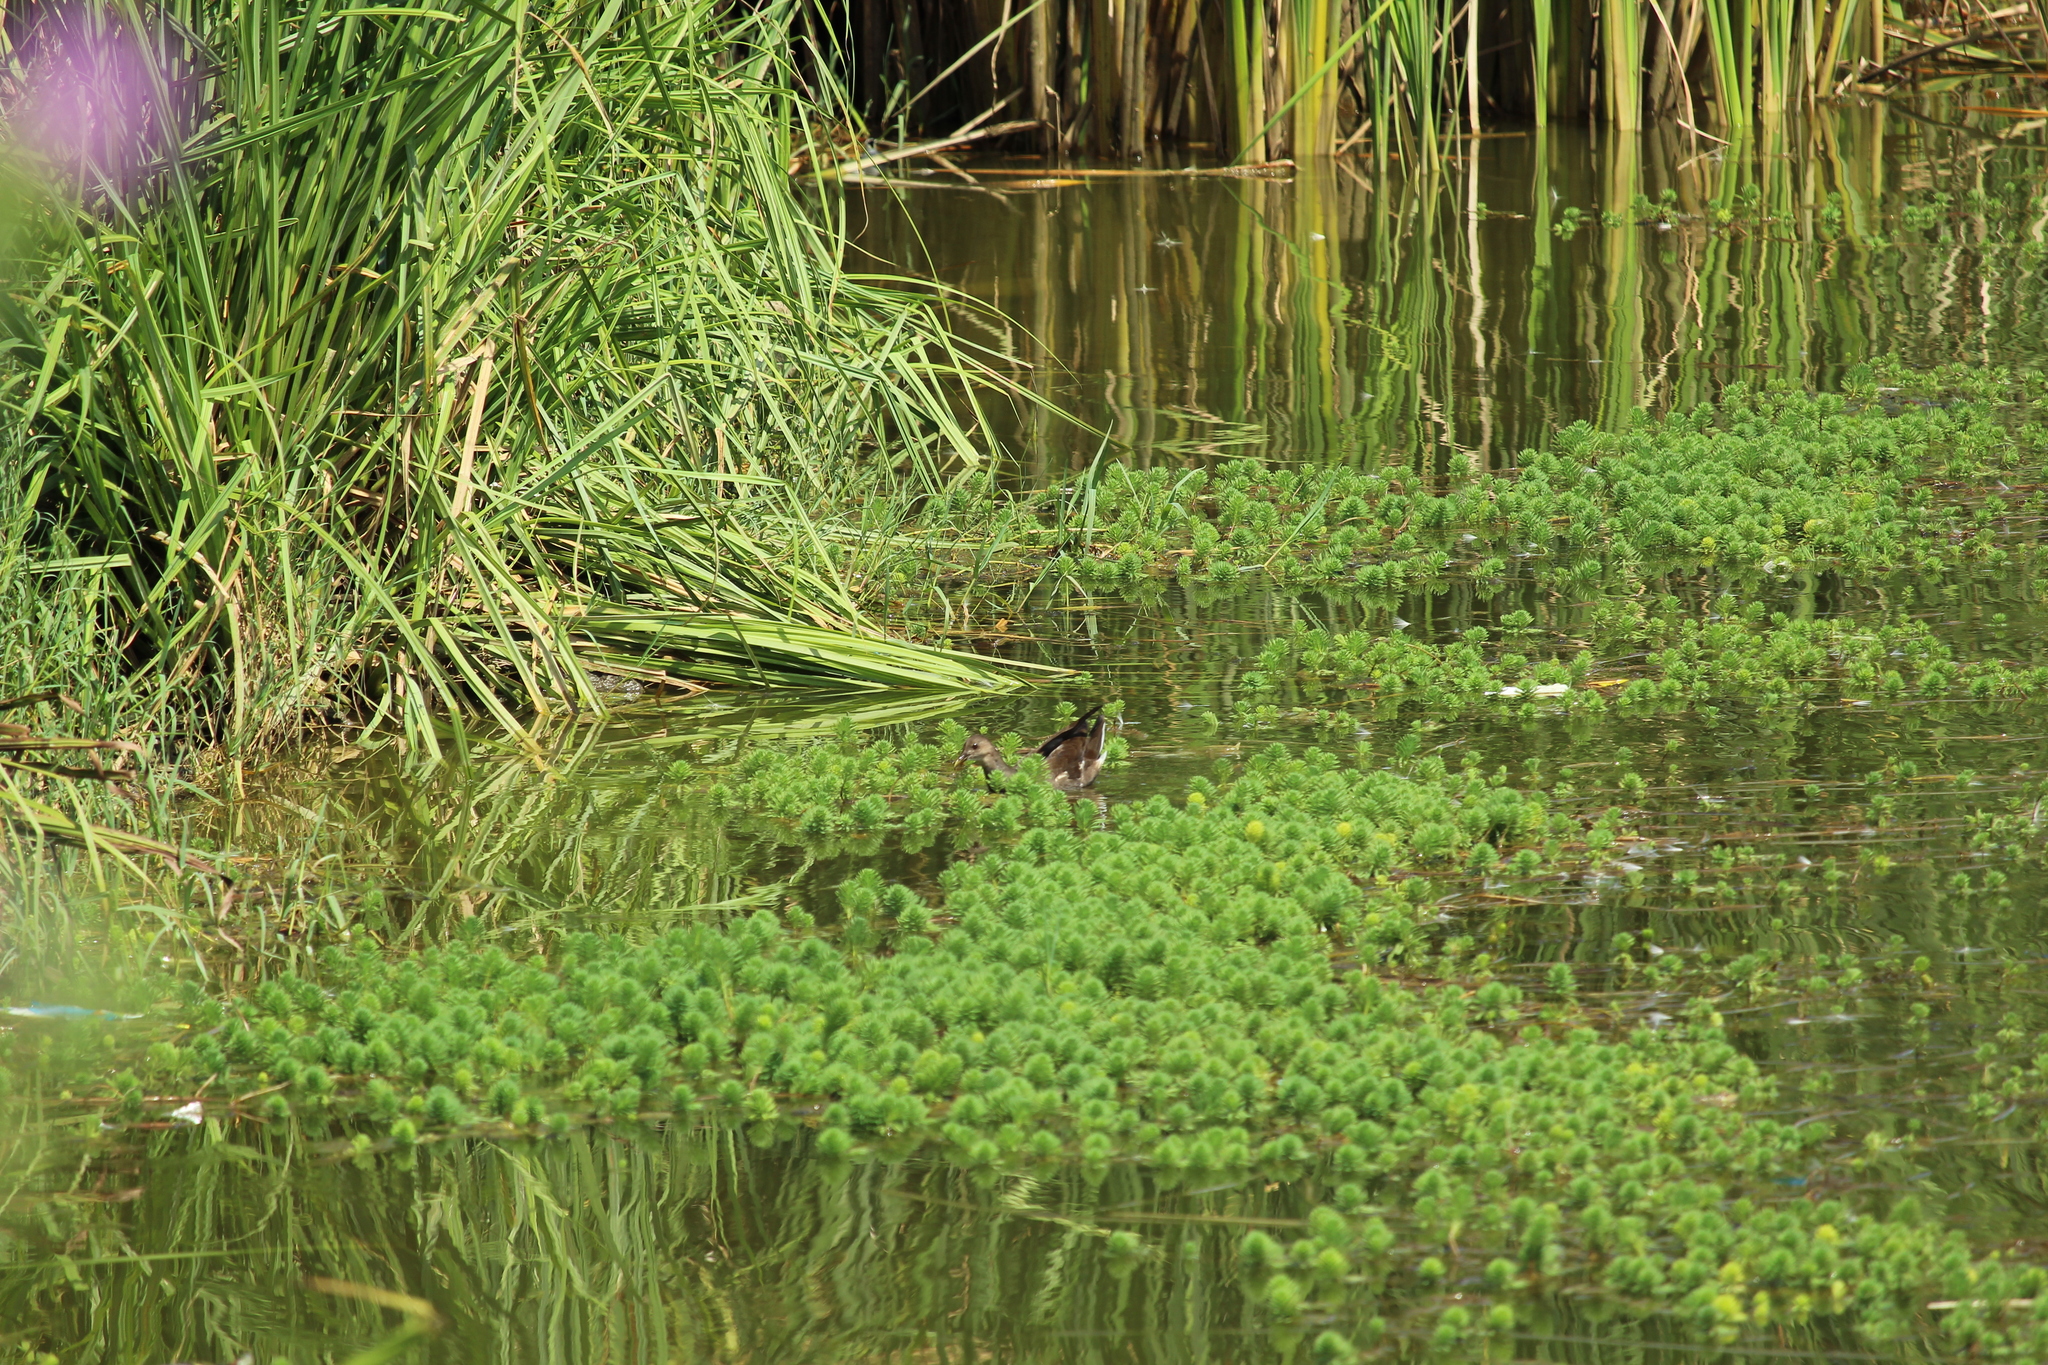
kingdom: Animalia
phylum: Chordata
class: Aves
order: Gruiformes
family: Rallidae
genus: Gallinula
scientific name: Gallinula chloropus
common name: Common moorhen
